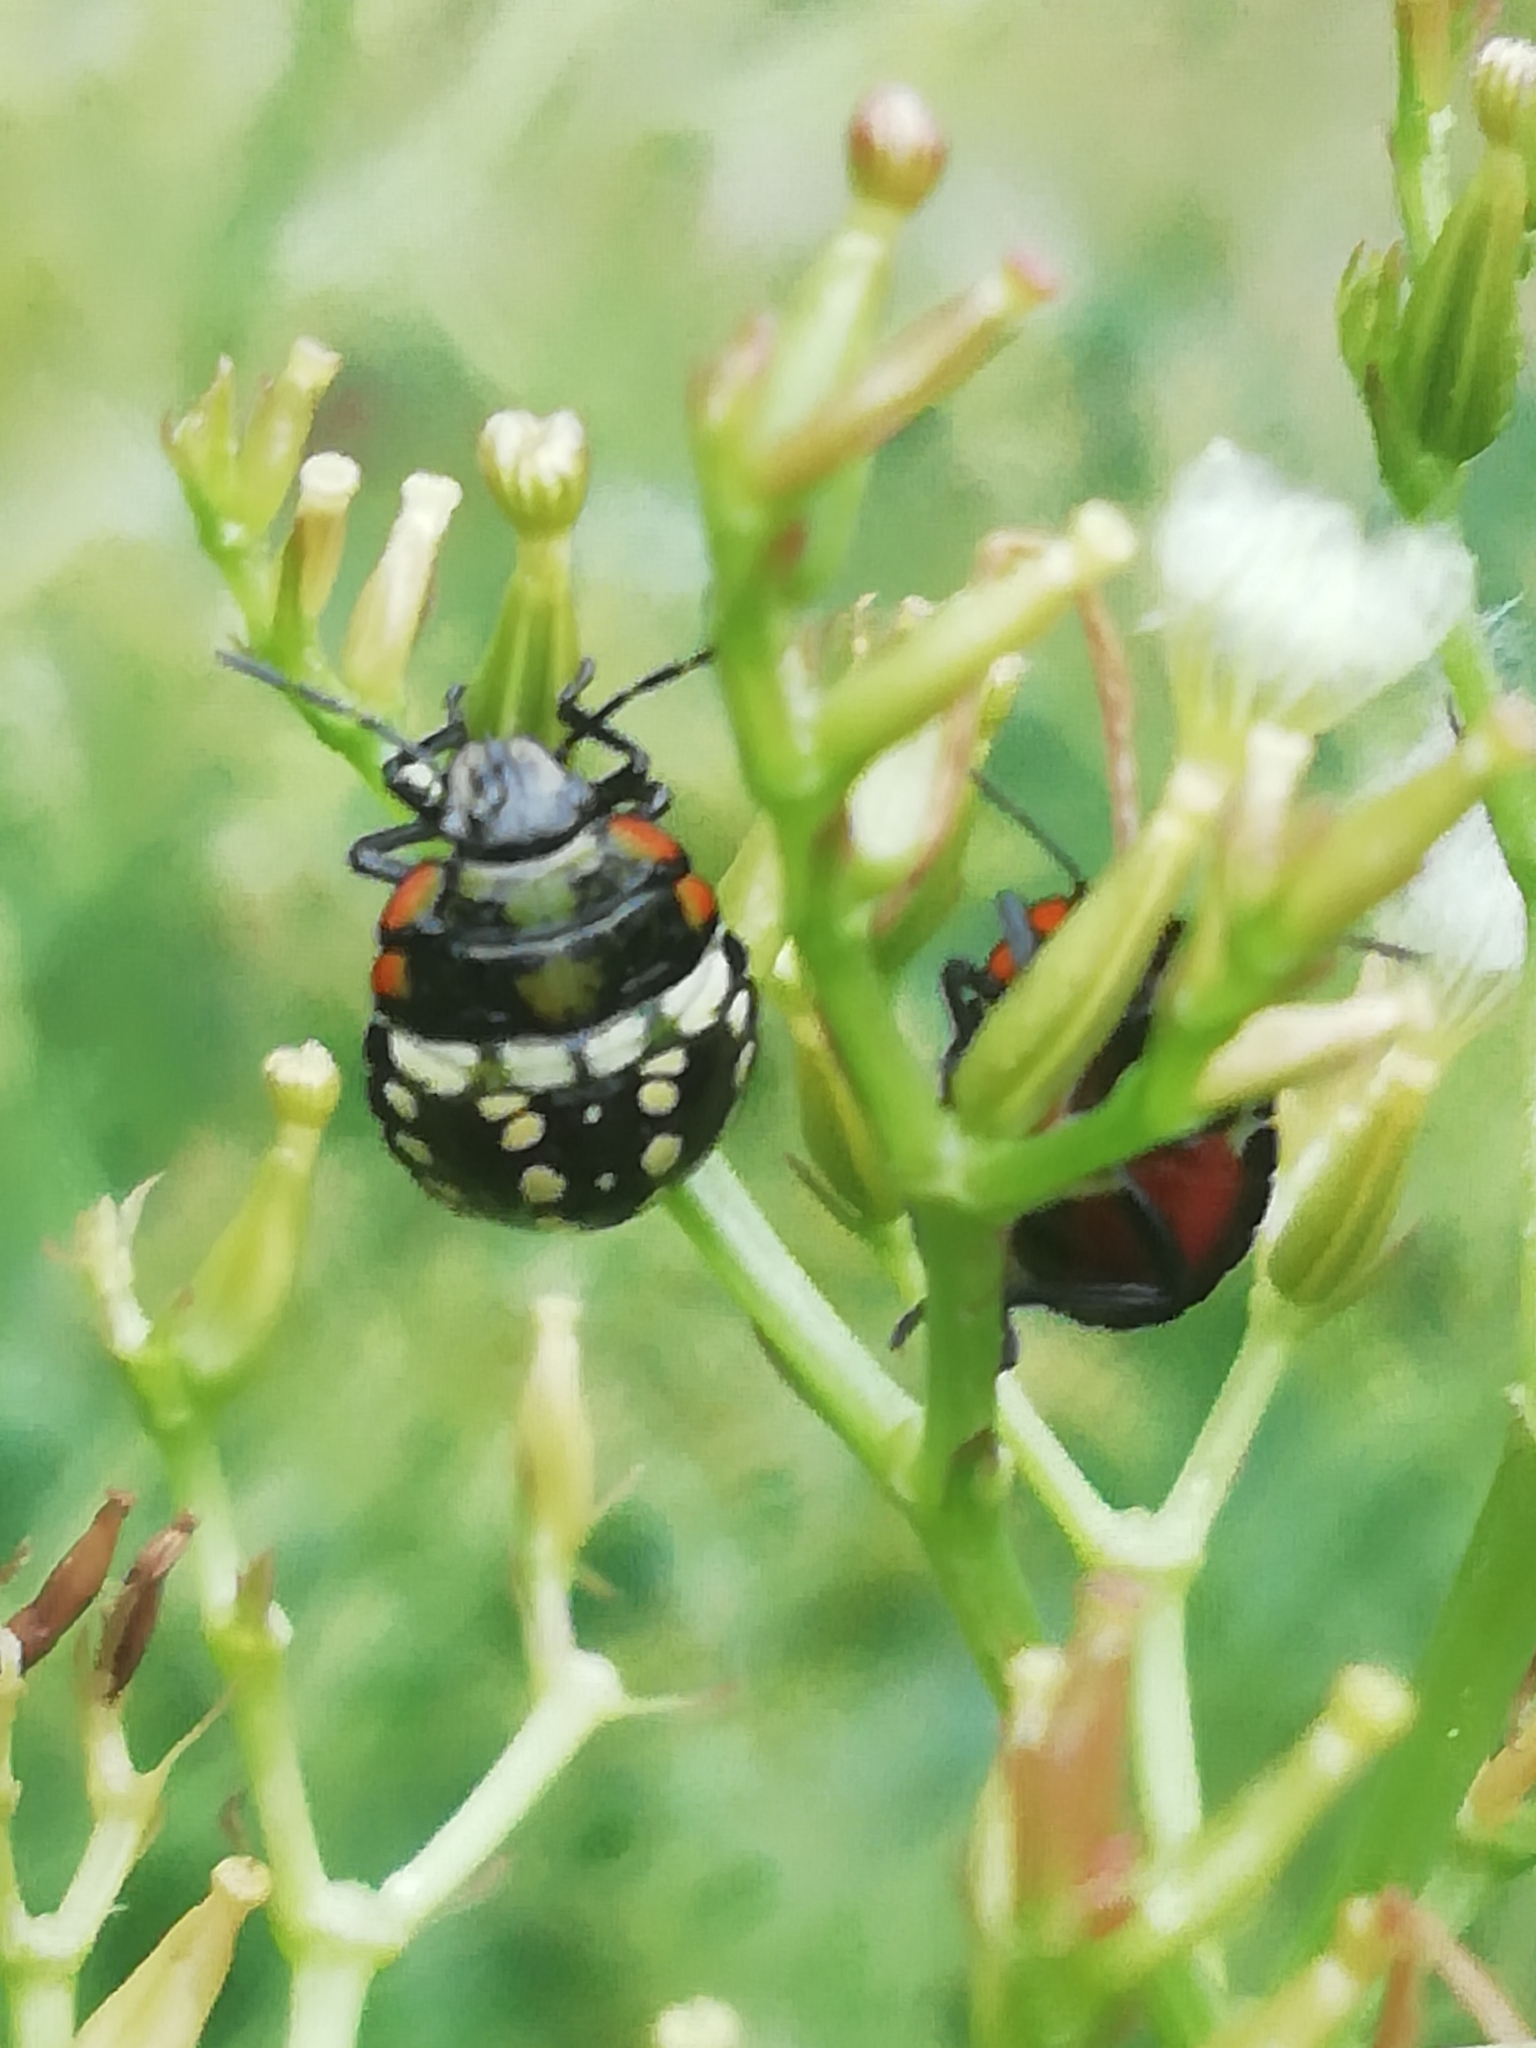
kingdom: Animalia
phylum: Arthropoda
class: Insecta
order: Hemiptera
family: Pentatomidae
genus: Nezara
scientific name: Nezara viridula
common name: Southern green stink bug
